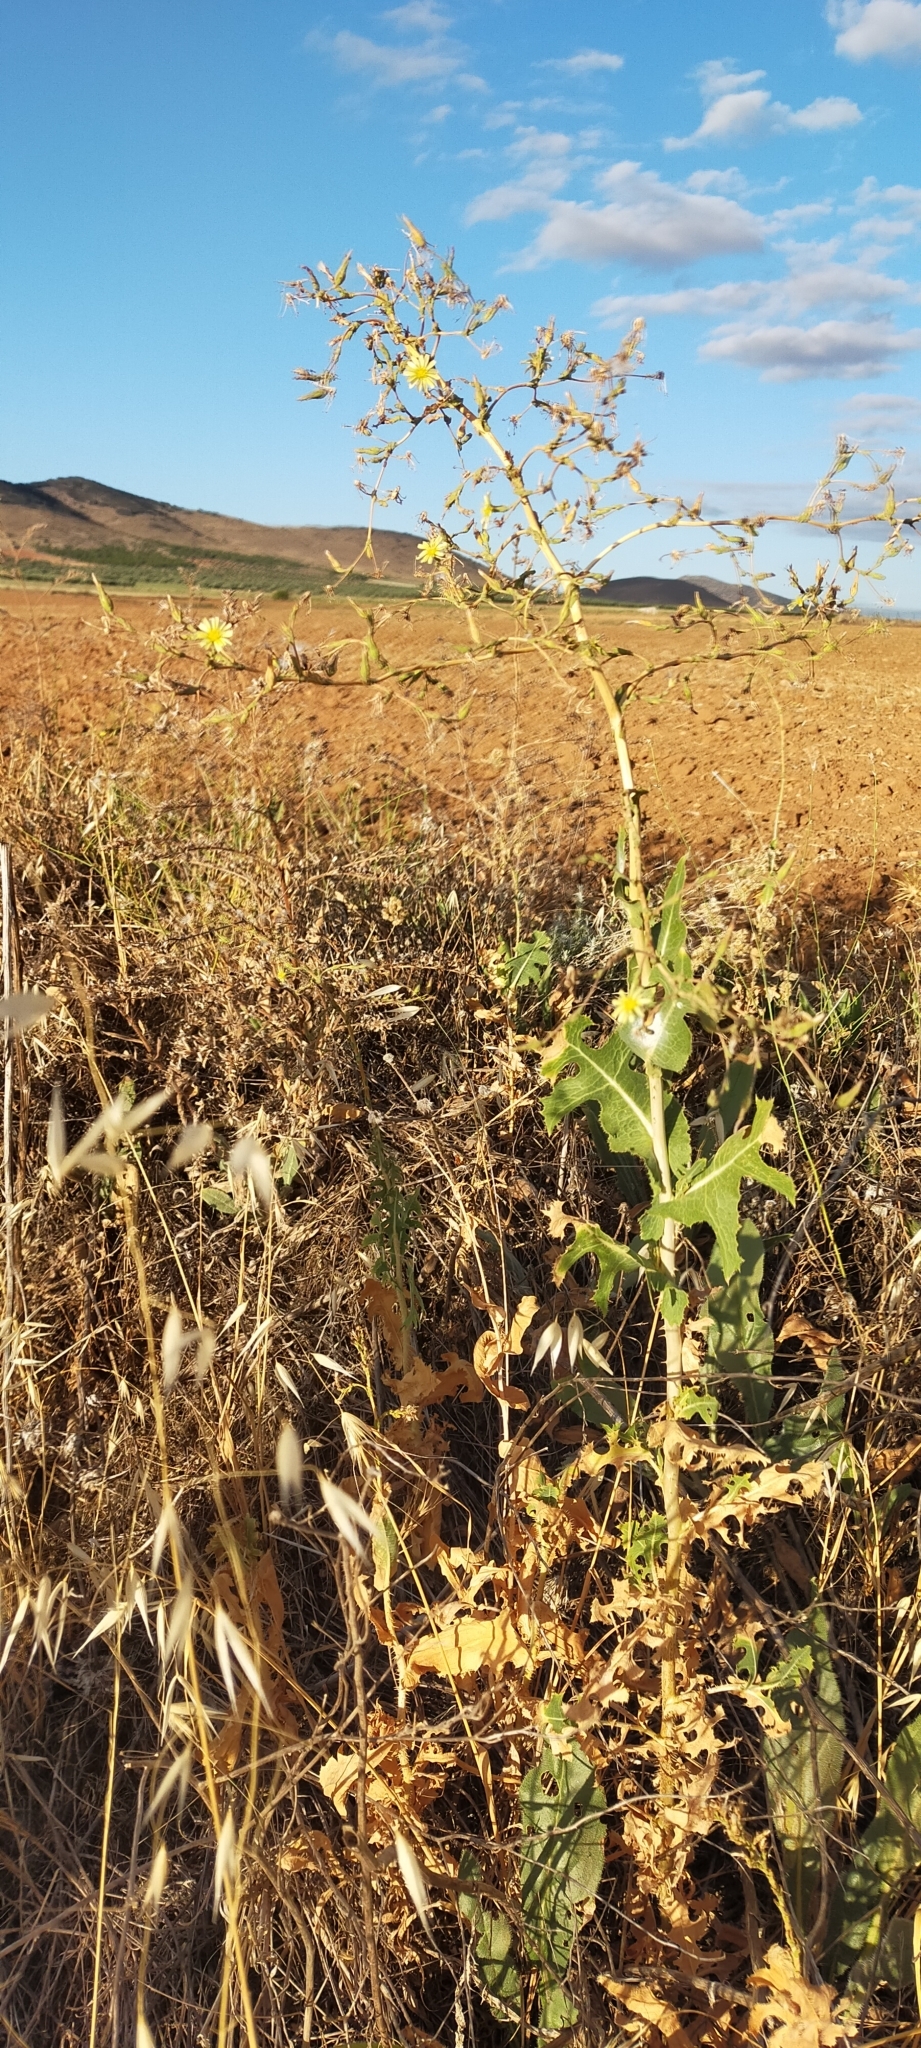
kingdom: Plantae
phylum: Tracheophyta
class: Magnoliopsida
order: Asterales
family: Asteraceae
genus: Lactuca
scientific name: Lactuca serriola
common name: Prickly lettuce
